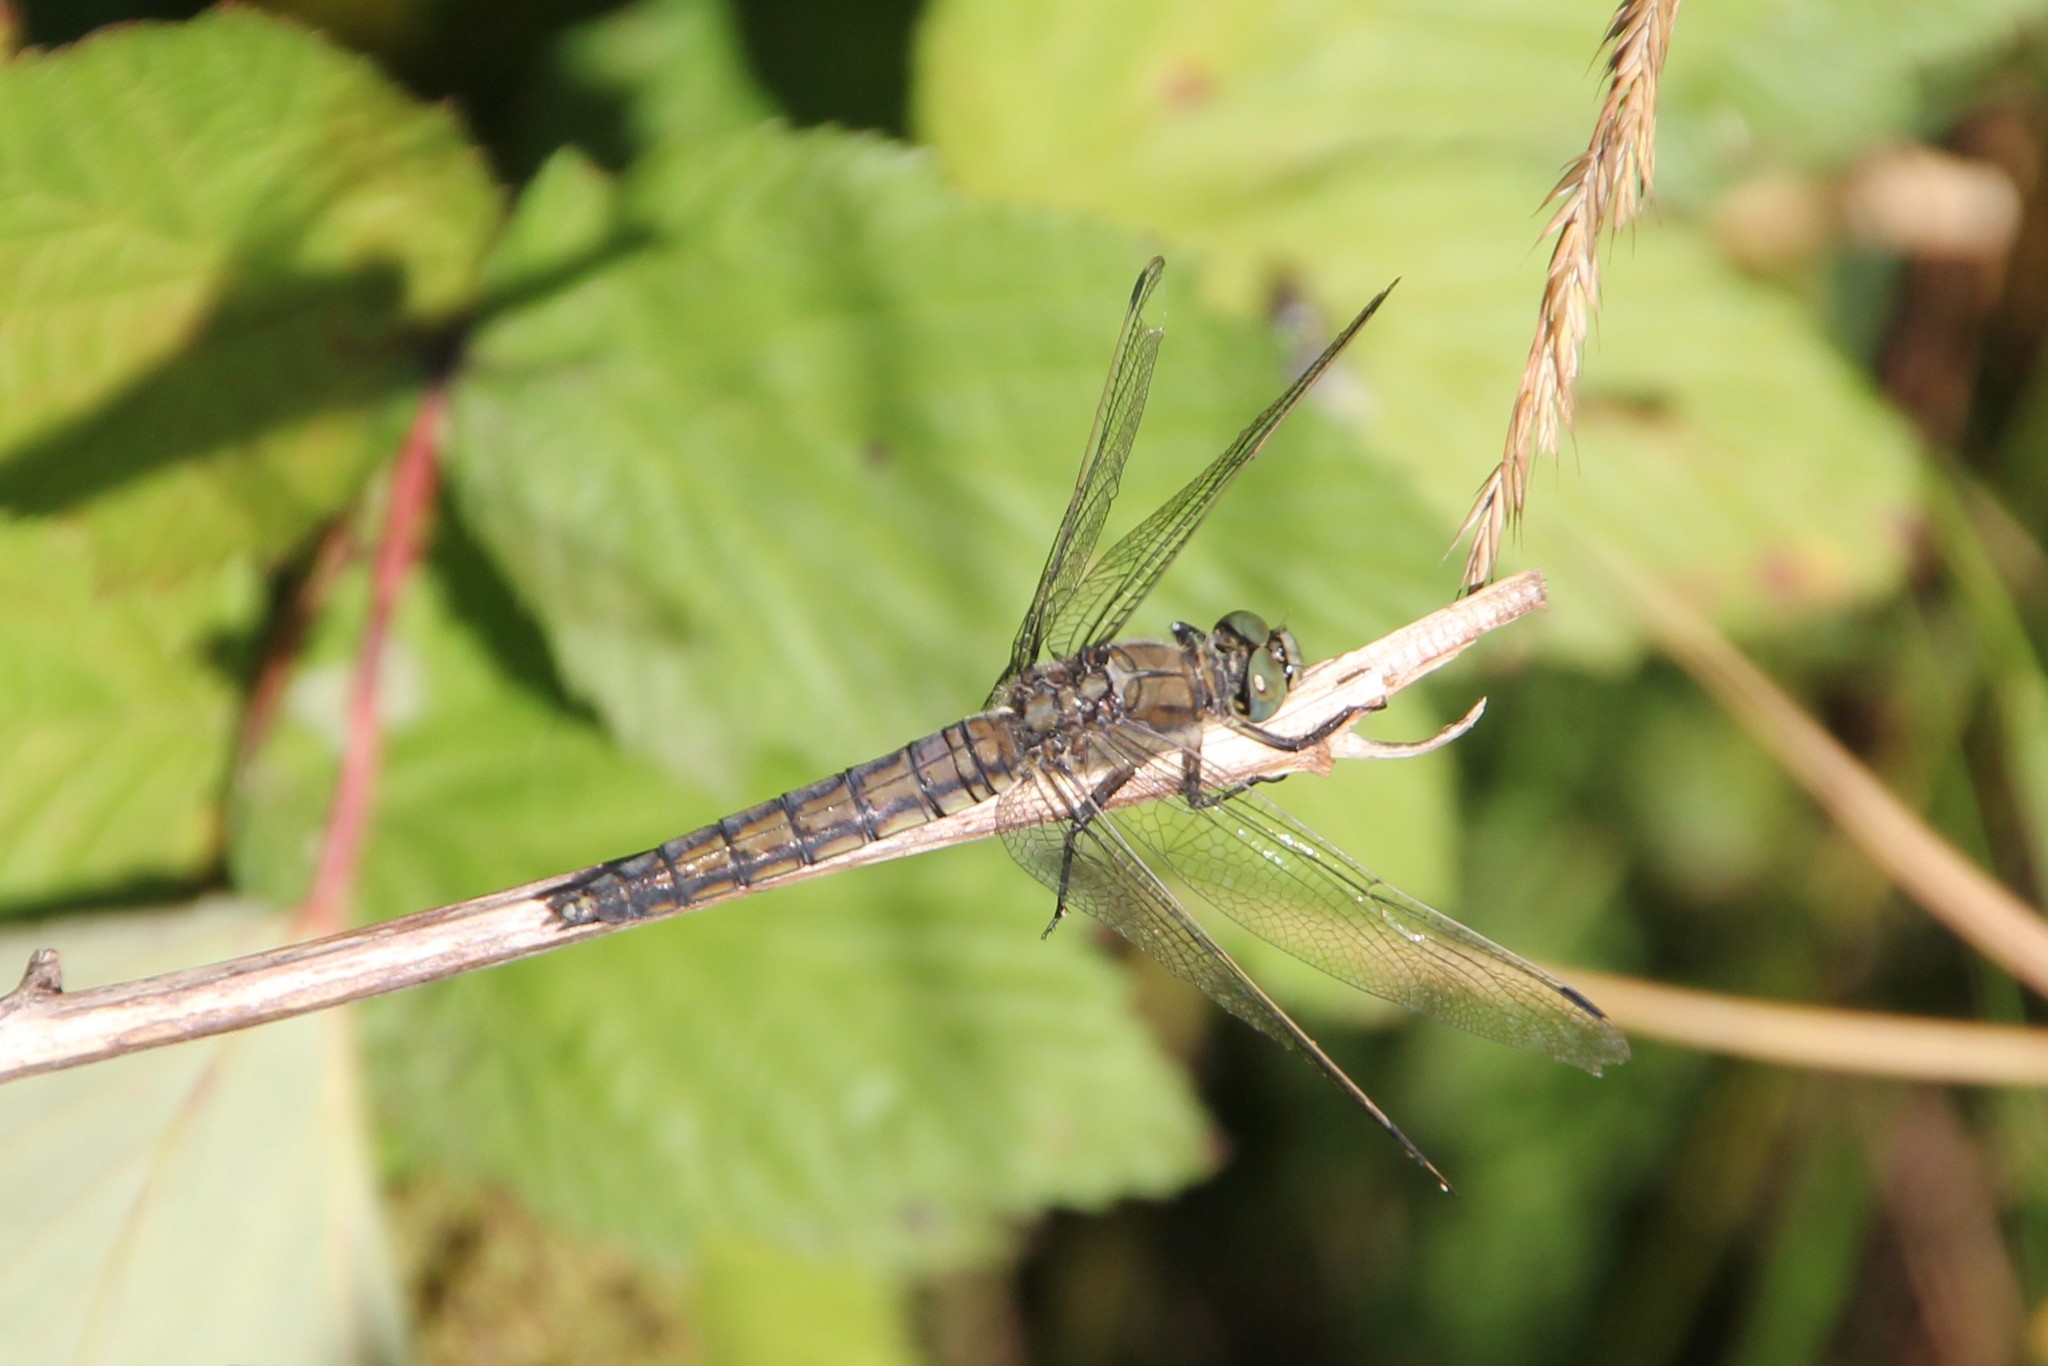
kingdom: Animalia
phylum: Arthropoda
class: Insecta
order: Odonata
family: Libellulidae
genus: Orthetrum
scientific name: Orthetrum cancellatum
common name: Black-tailed skimmer
